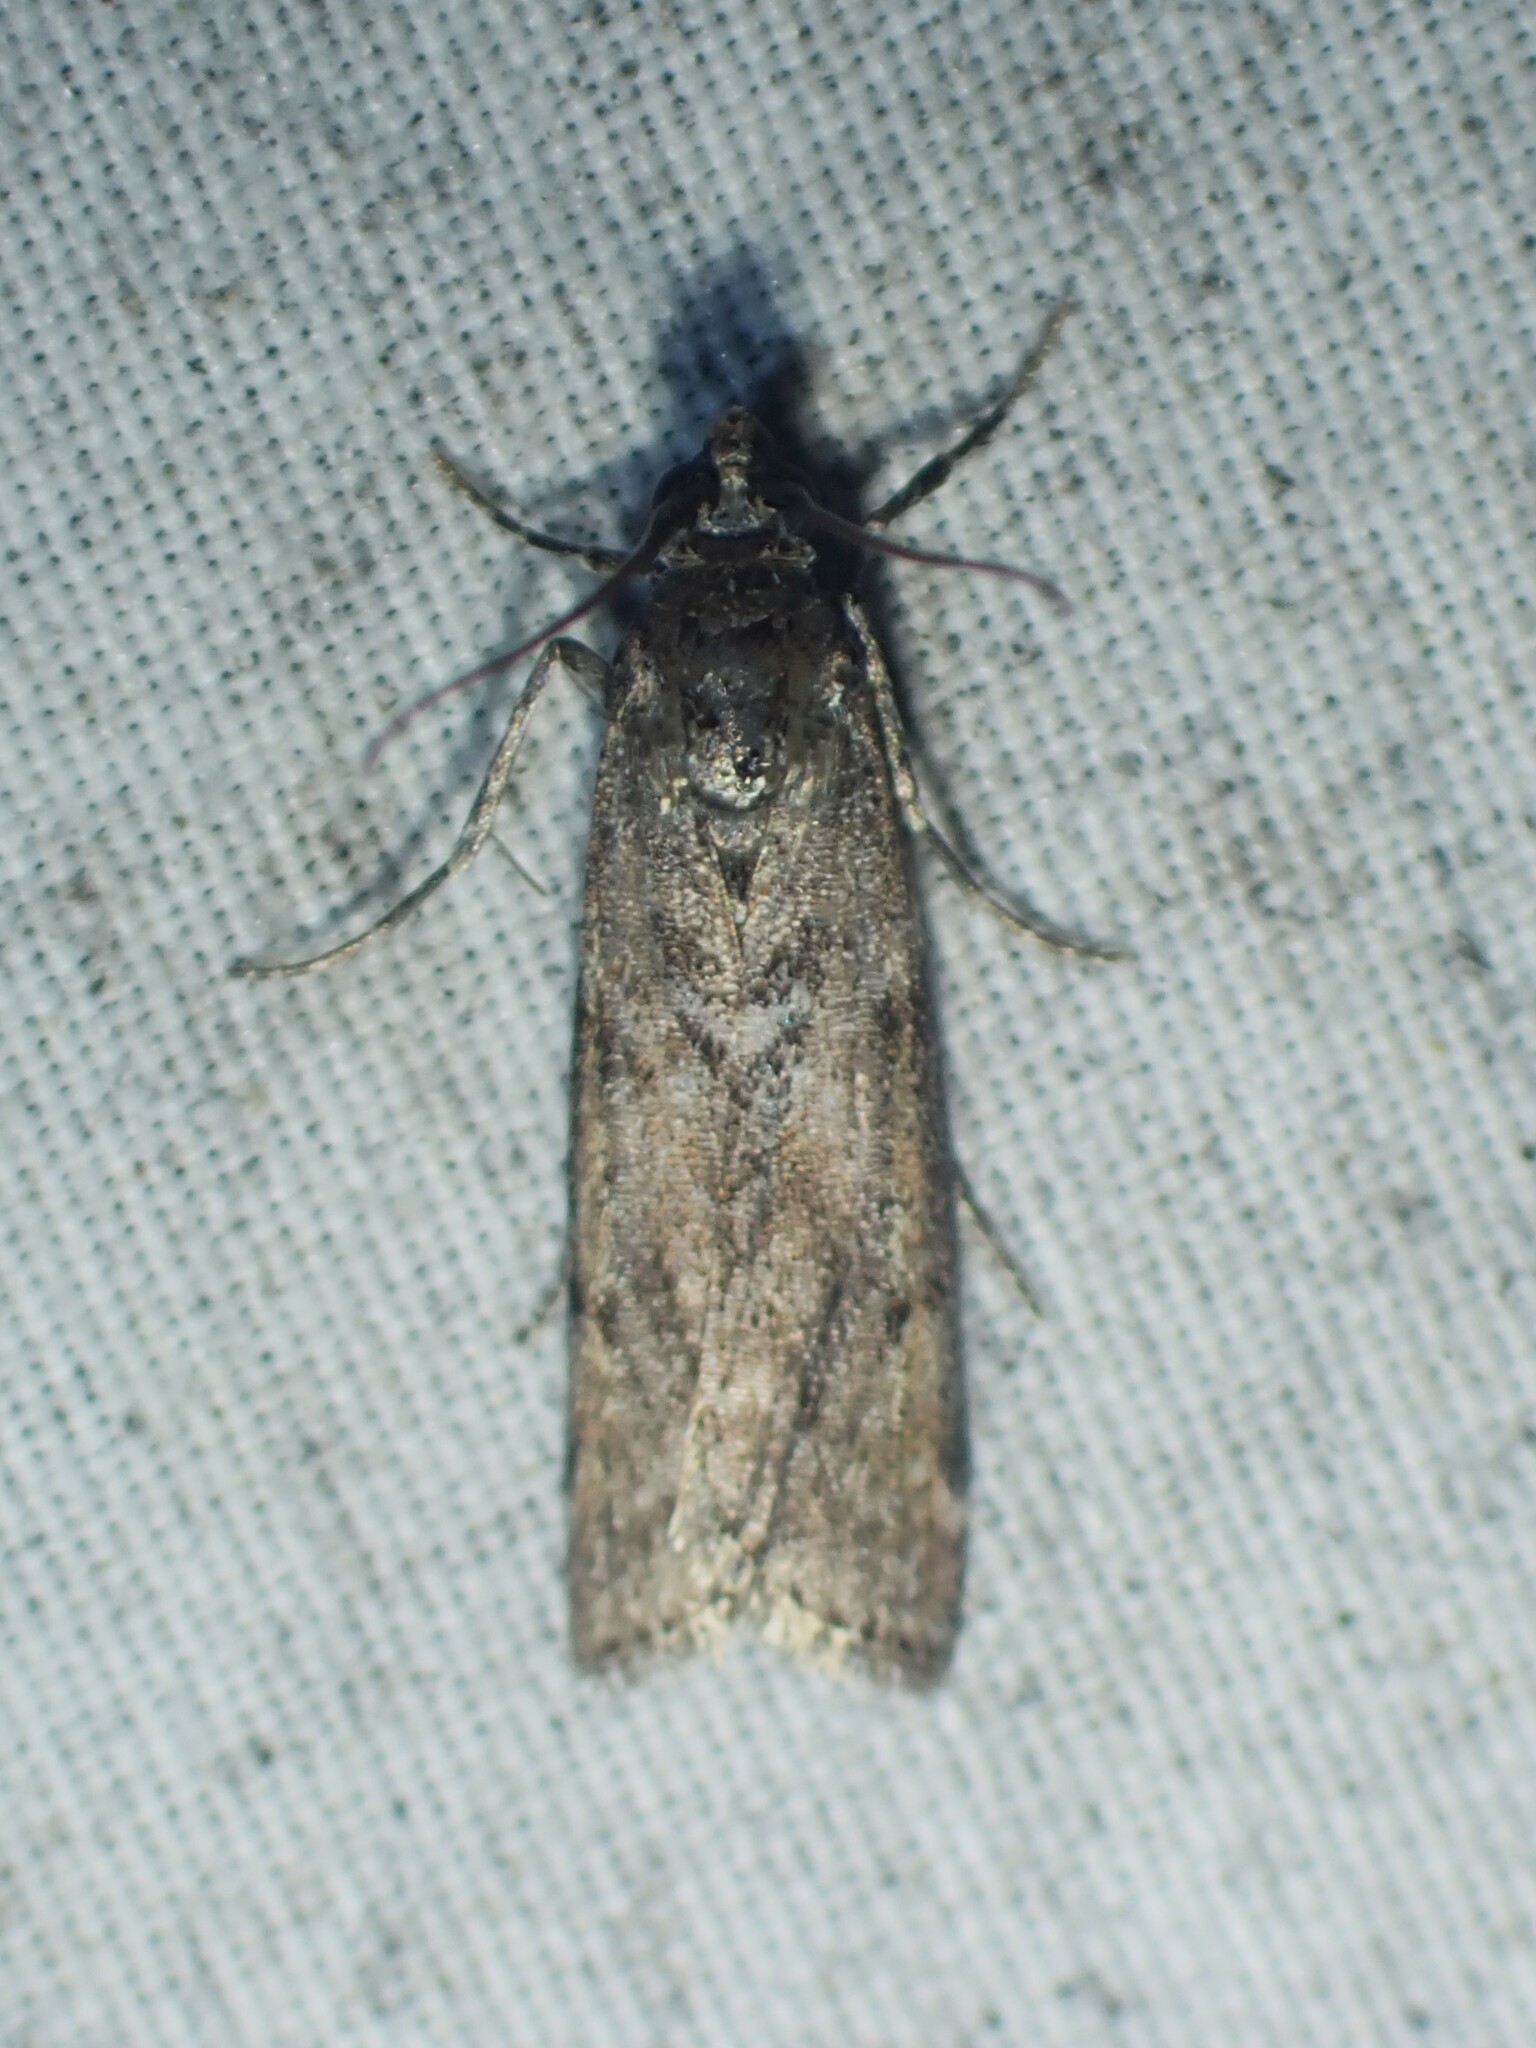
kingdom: Animalia
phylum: Arthropoda
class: Insecta
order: Lepidoptera
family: Pyralidae
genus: Pyla
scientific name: Pyla fusca
